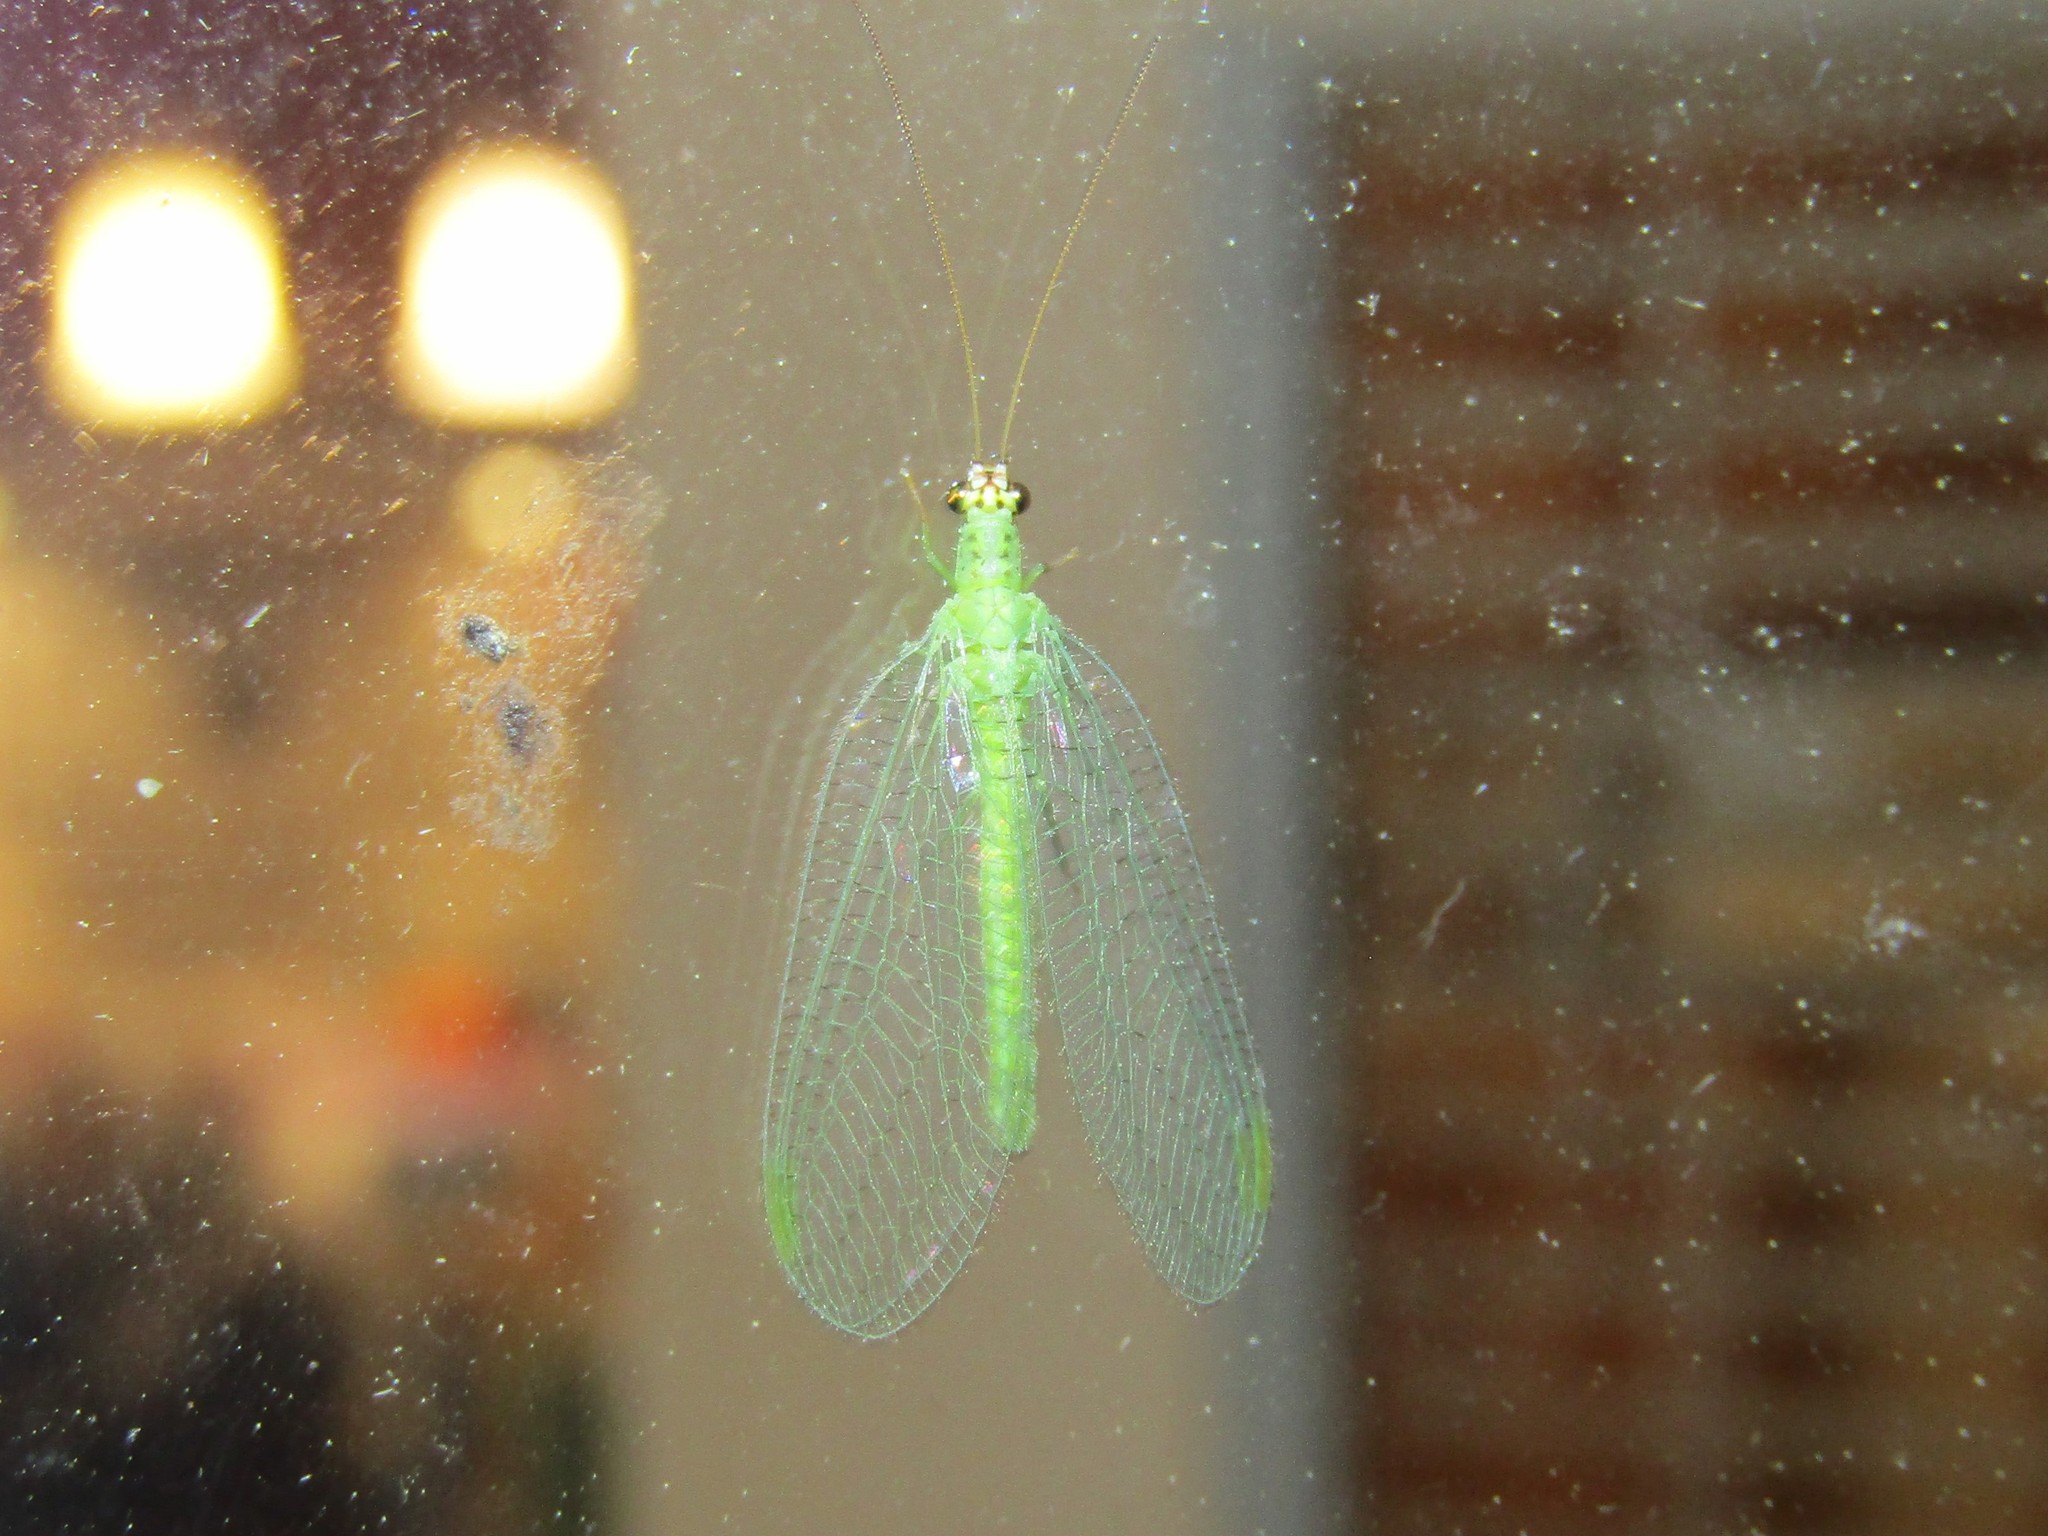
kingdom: Animalia
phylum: Arthropoda
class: Insecta
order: Neuroptera
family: Chrysopidae
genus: Chrysopa
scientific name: Chrysopa oculata
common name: Golden-eyed lacewing
